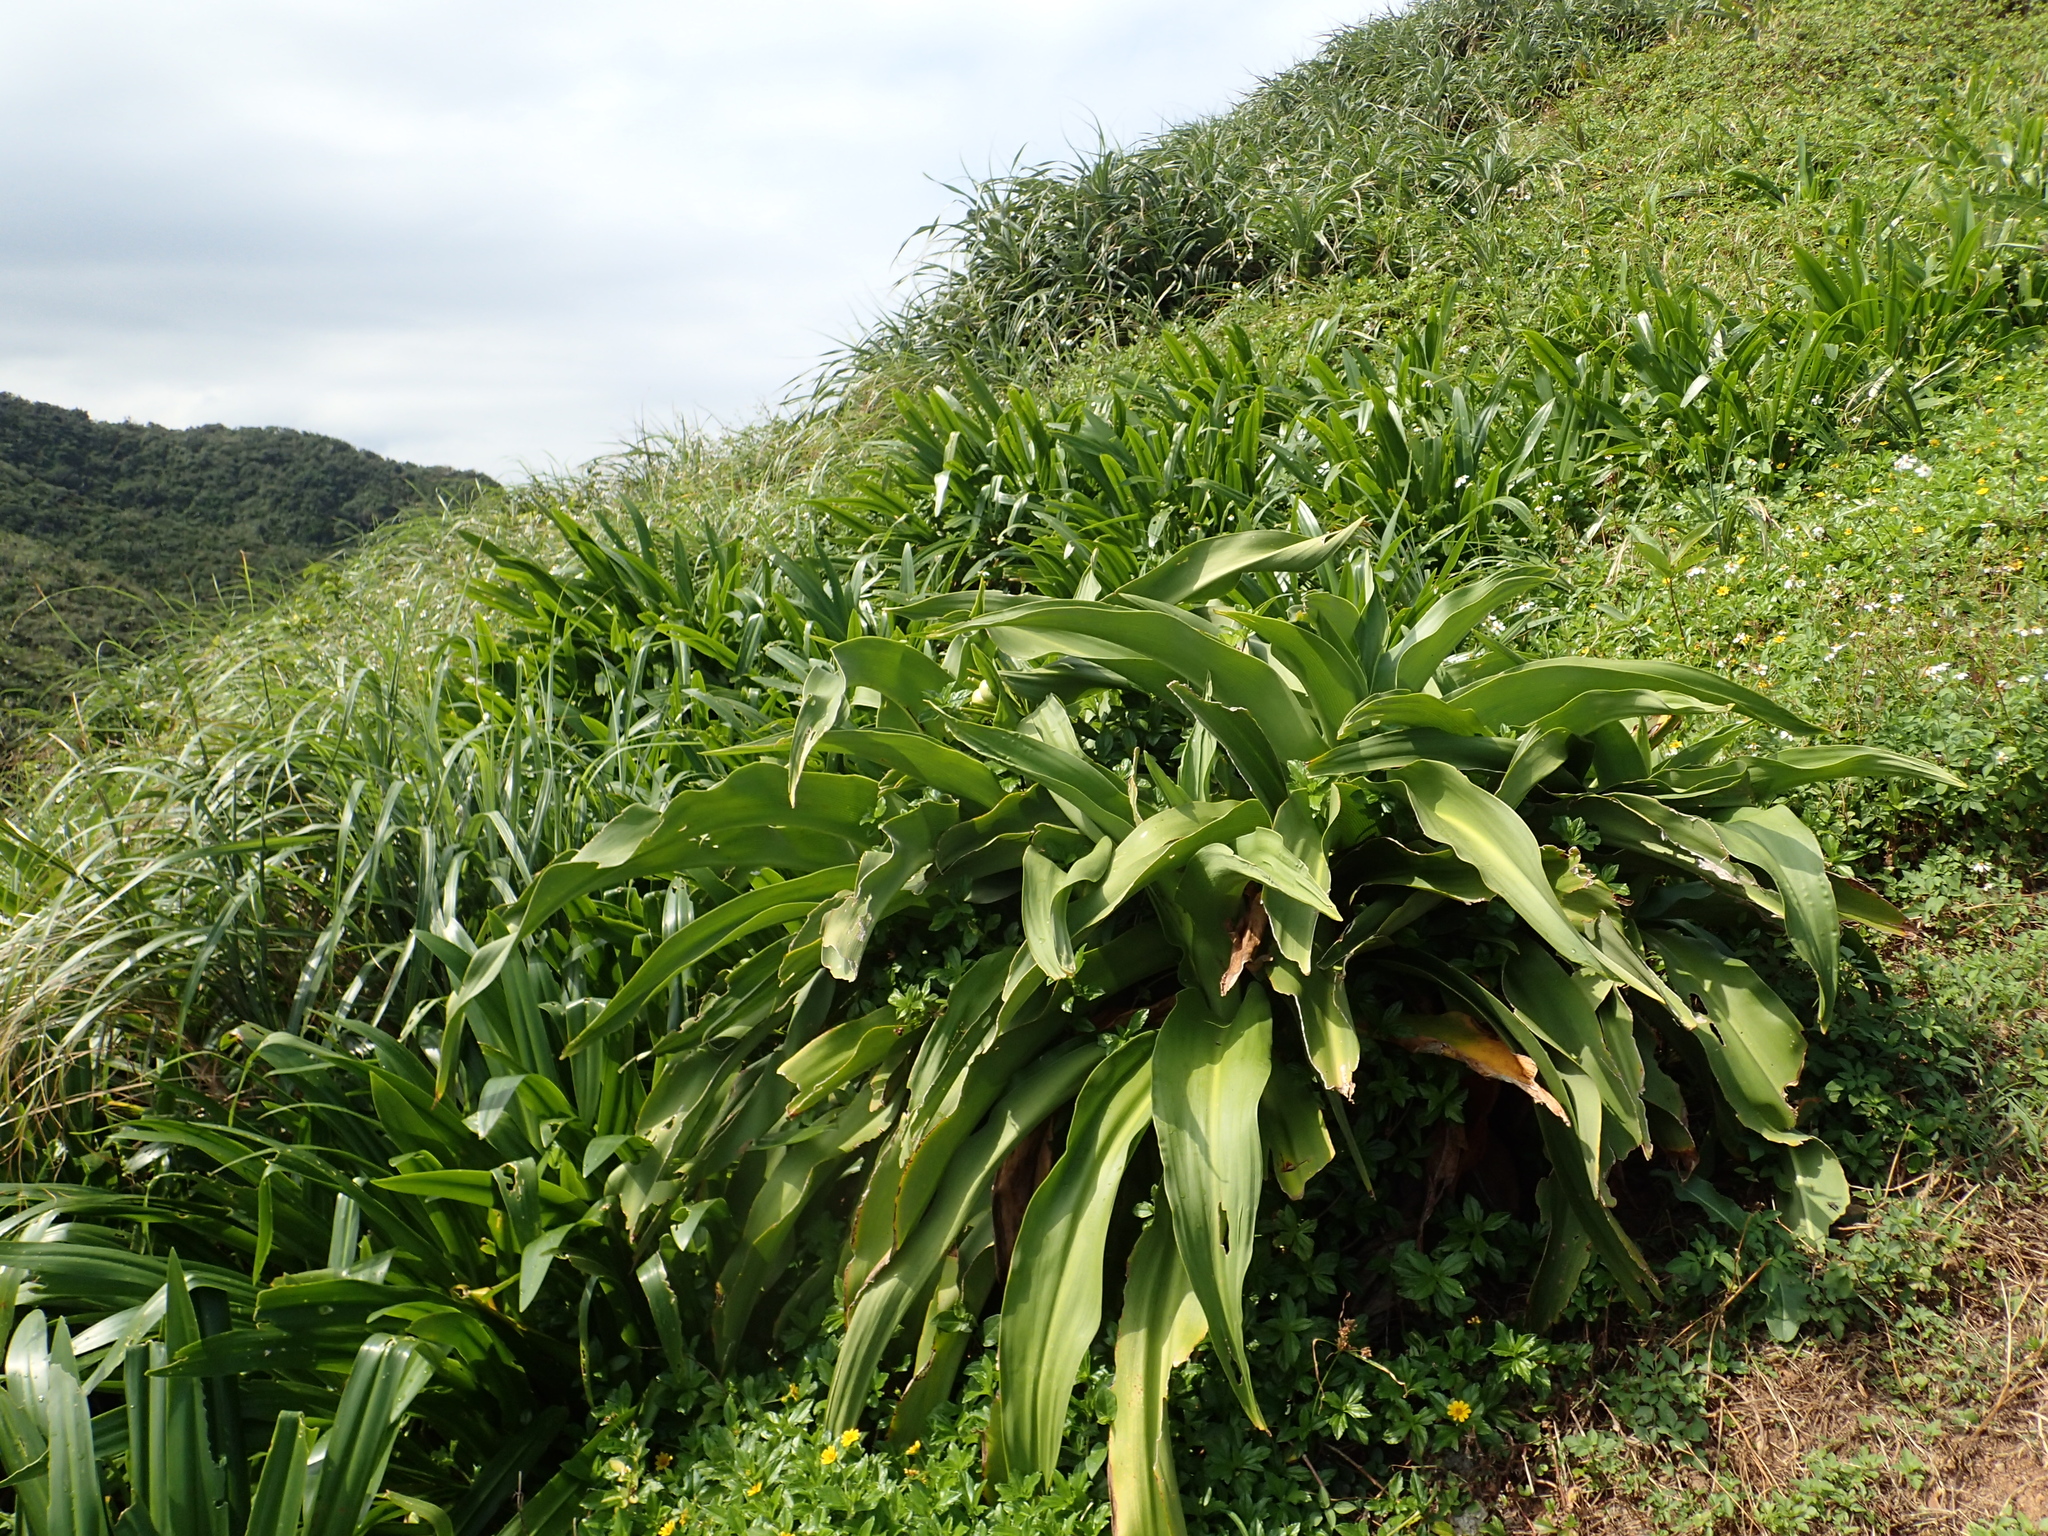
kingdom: Plantae
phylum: Tracheophyta
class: Liliopsida
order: Asparagales
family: Amaryllidaceae
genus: Crinum
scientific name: Crinum asiaticum
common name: Poisonbulb
